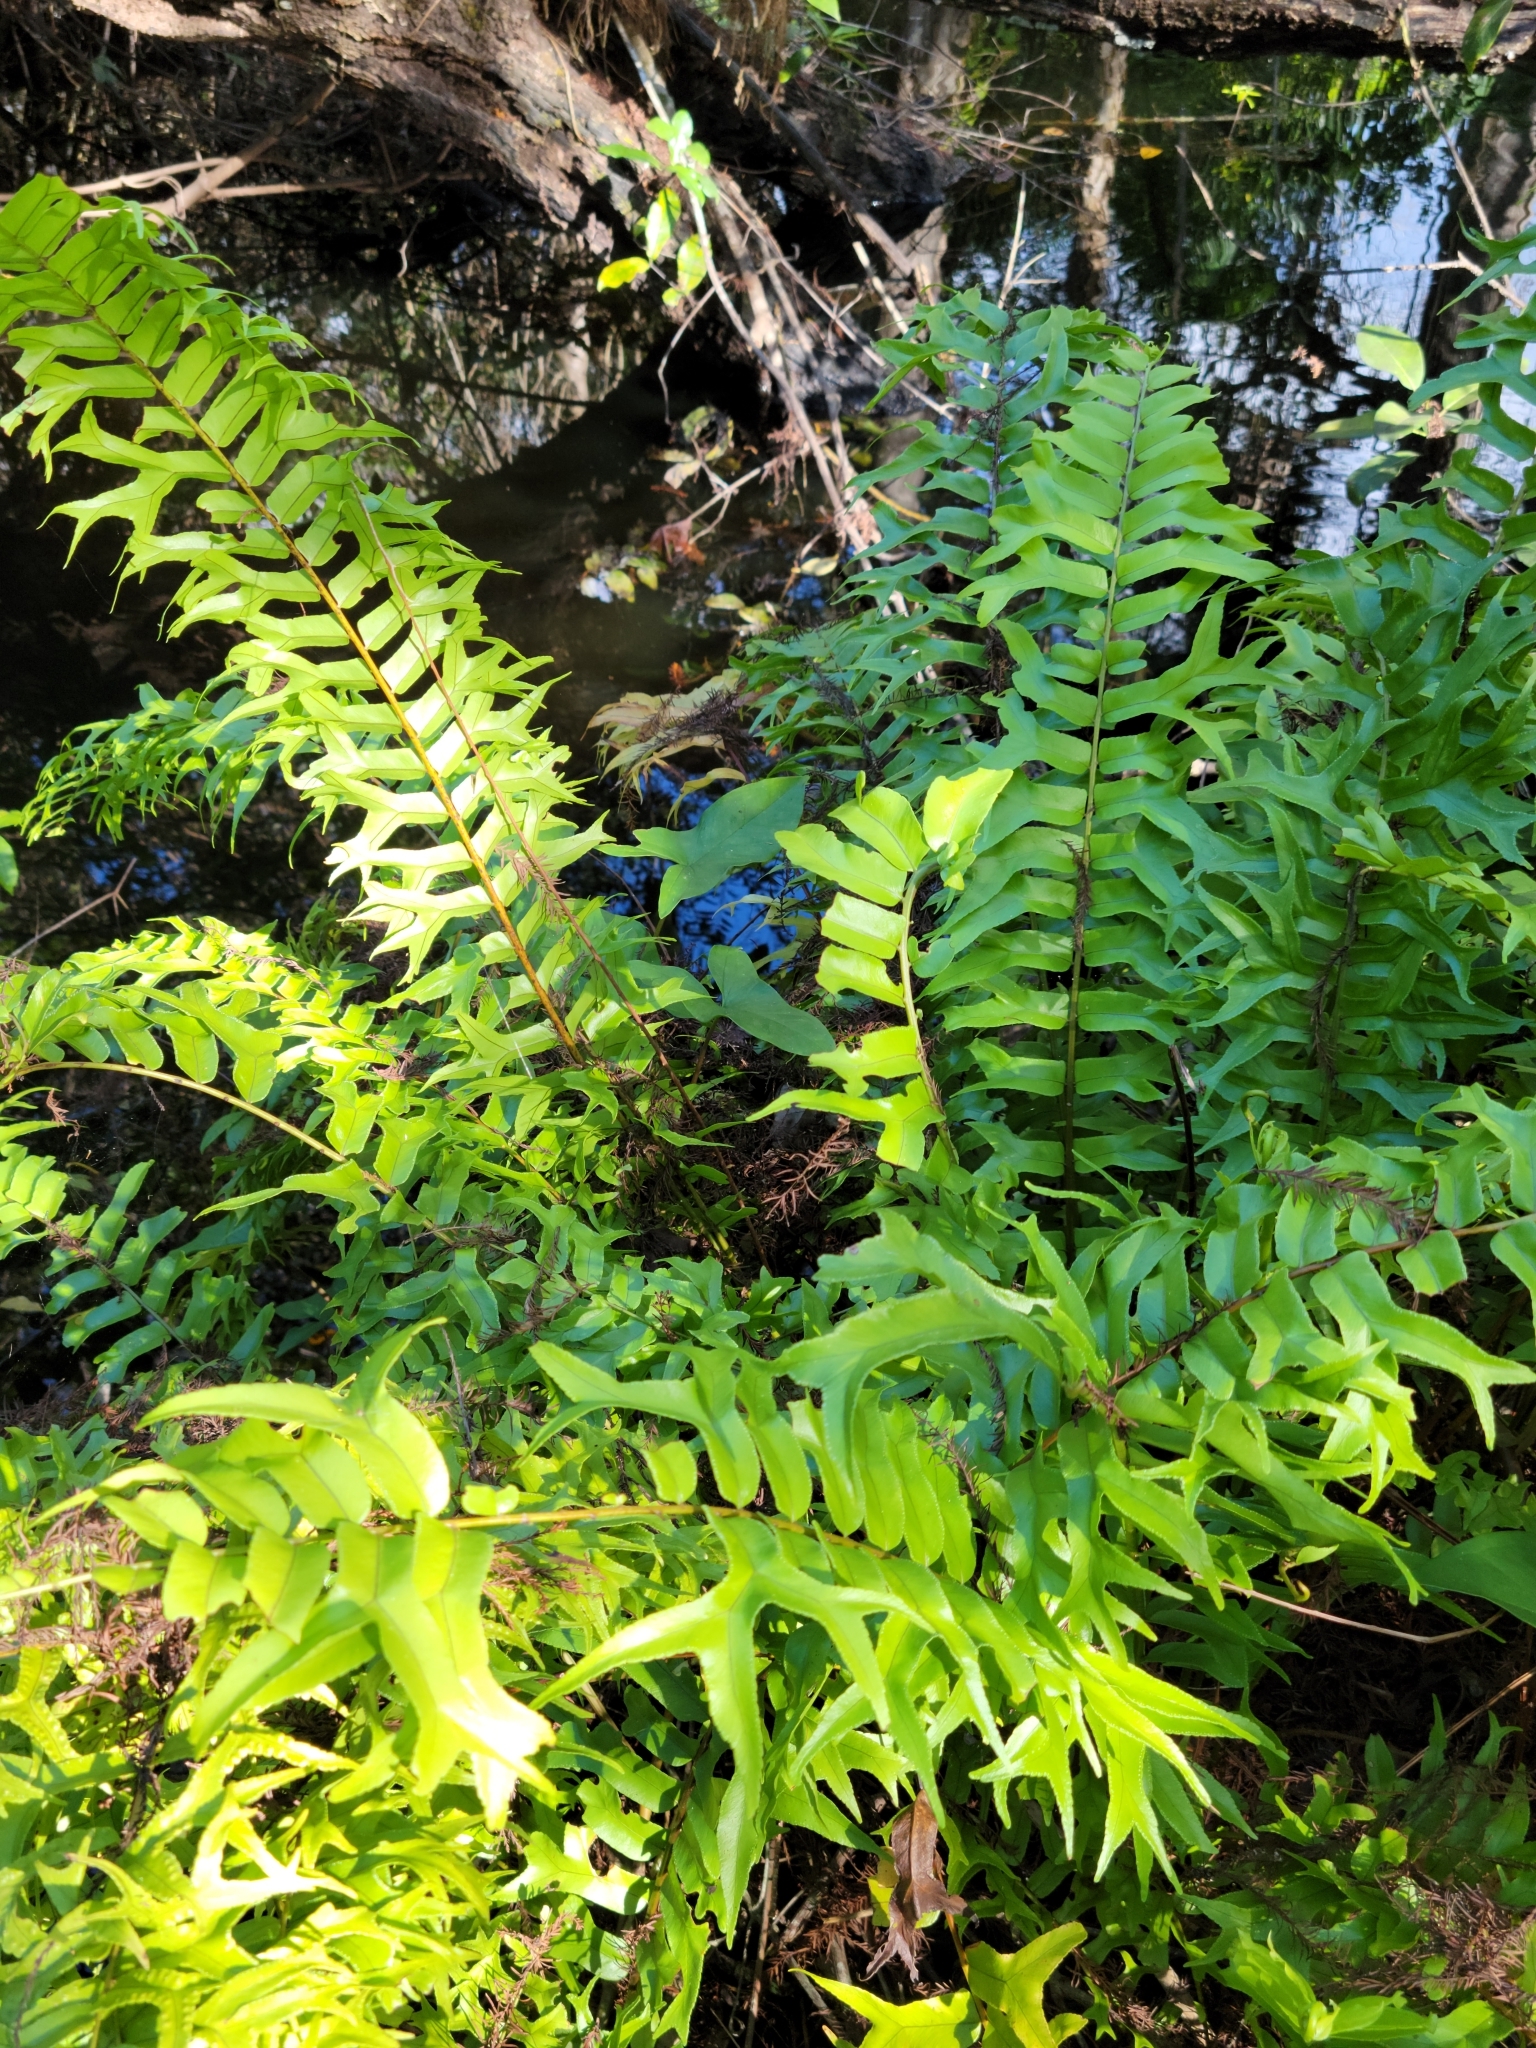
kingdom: Plantae
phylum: Tracheophyta
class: Polypodiopsida
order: Polypodiales
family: Nephrolepidaceae
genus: Nephrolepis
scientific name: Nephrolepis falcata
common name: Fishtail swordfern
